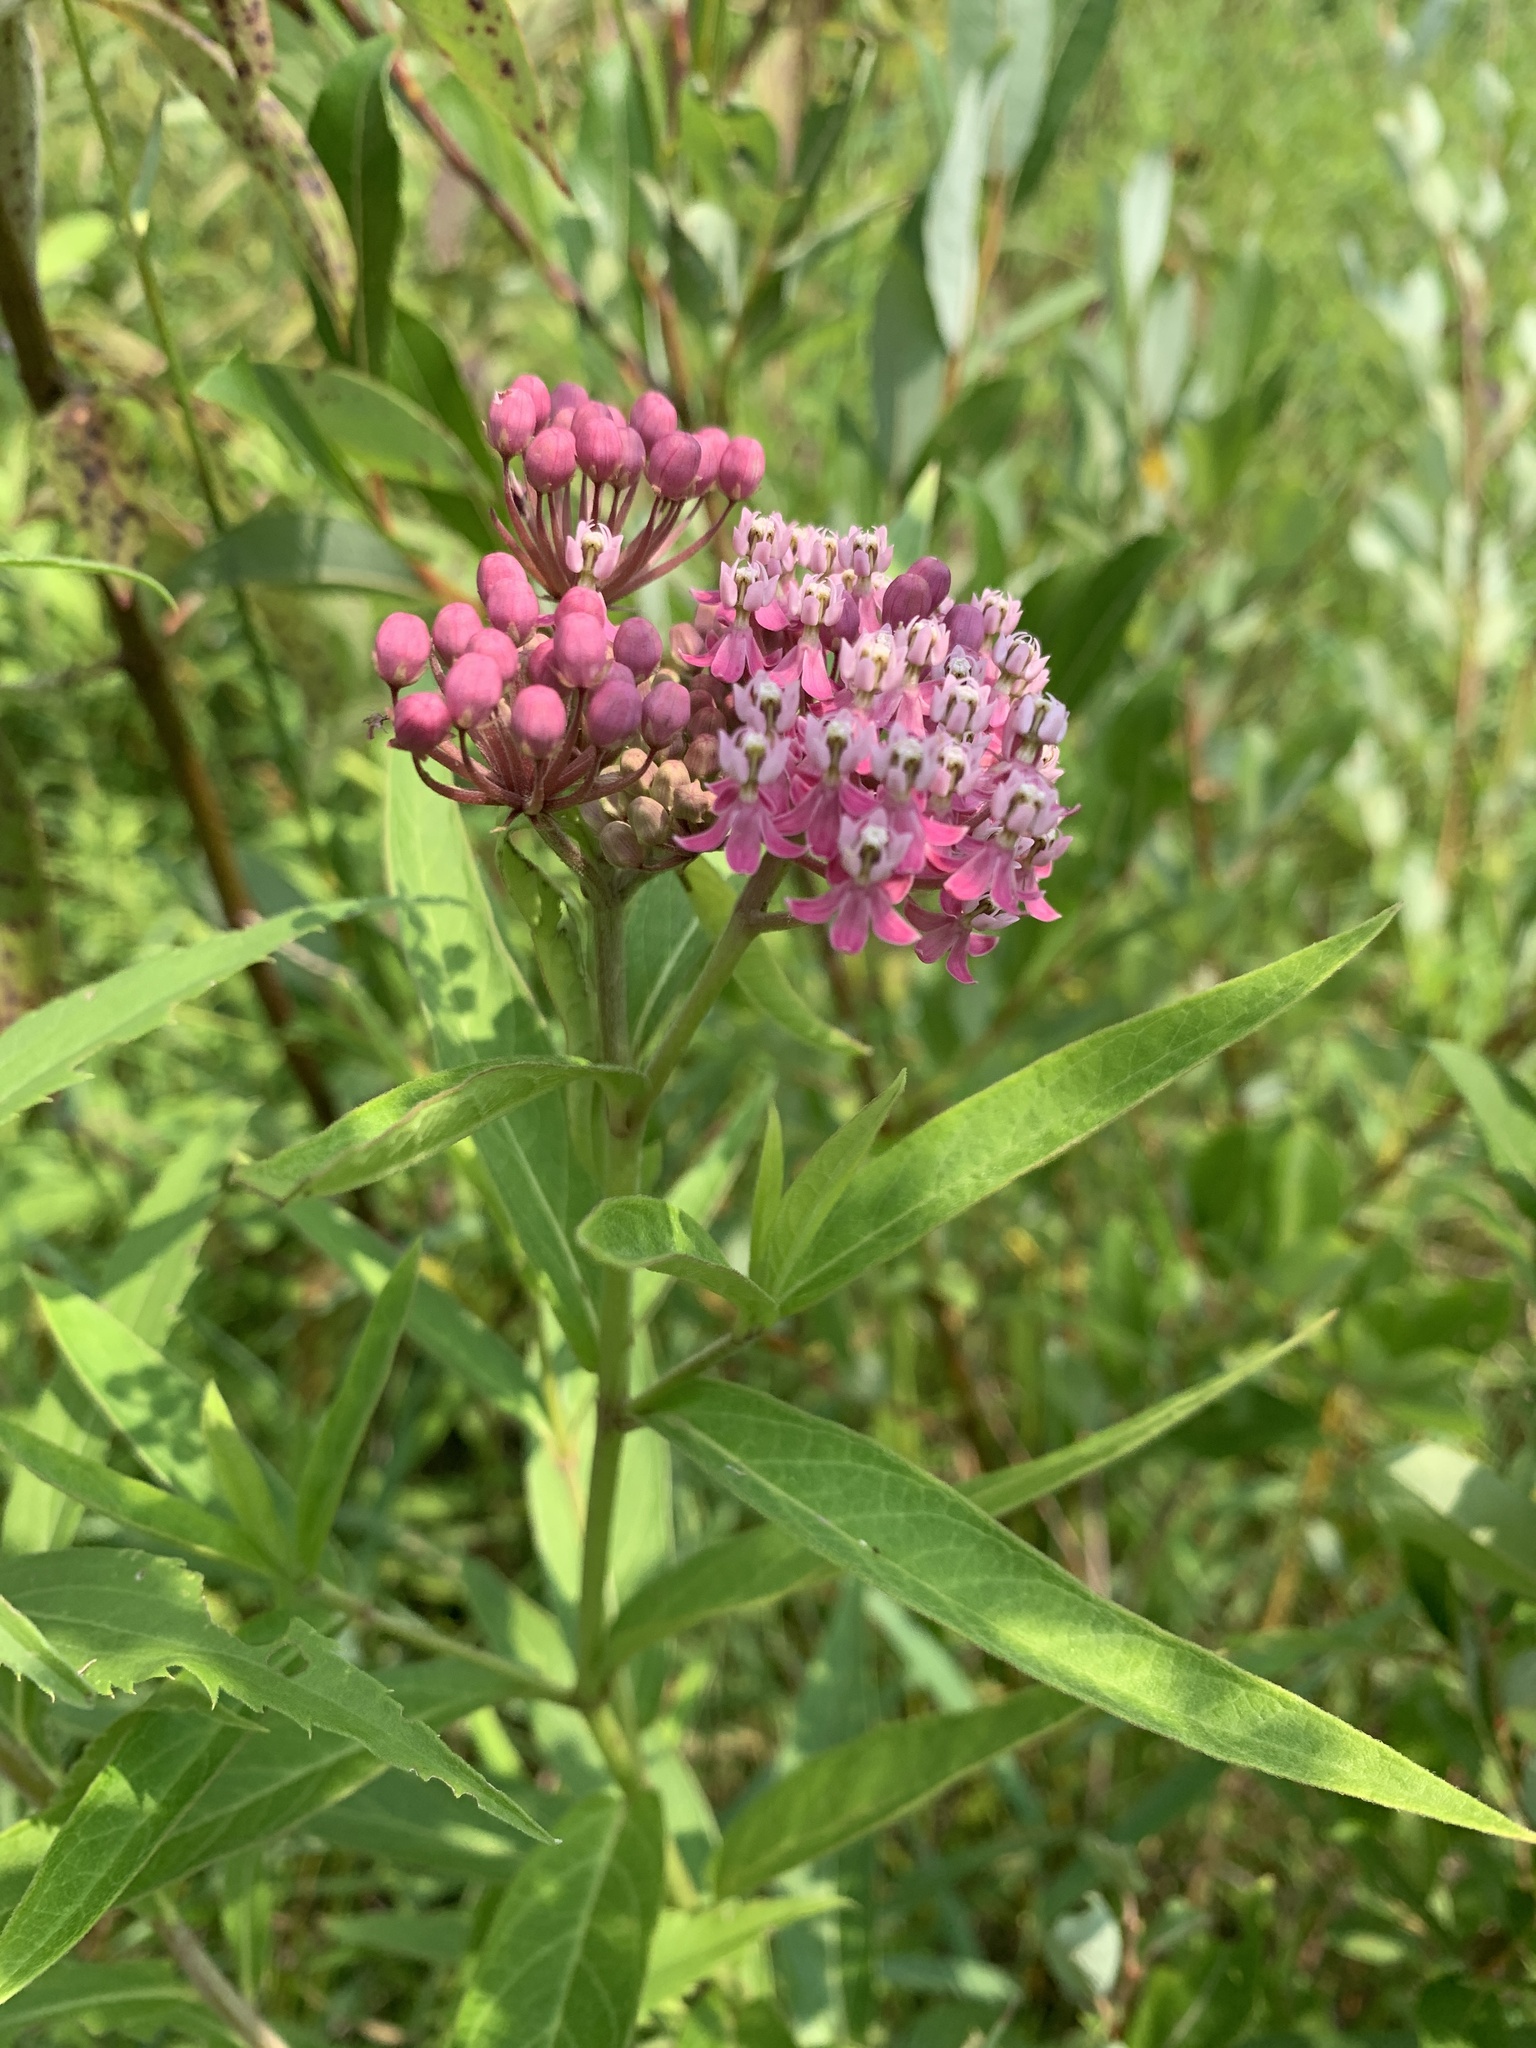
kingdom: Plantae
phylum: Tracheophyta
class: Magnoliopsida
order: Gentianales
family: Apocynaceae
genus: Asclepias
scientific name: Asclepias incarnata
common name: Swamp milkweed
